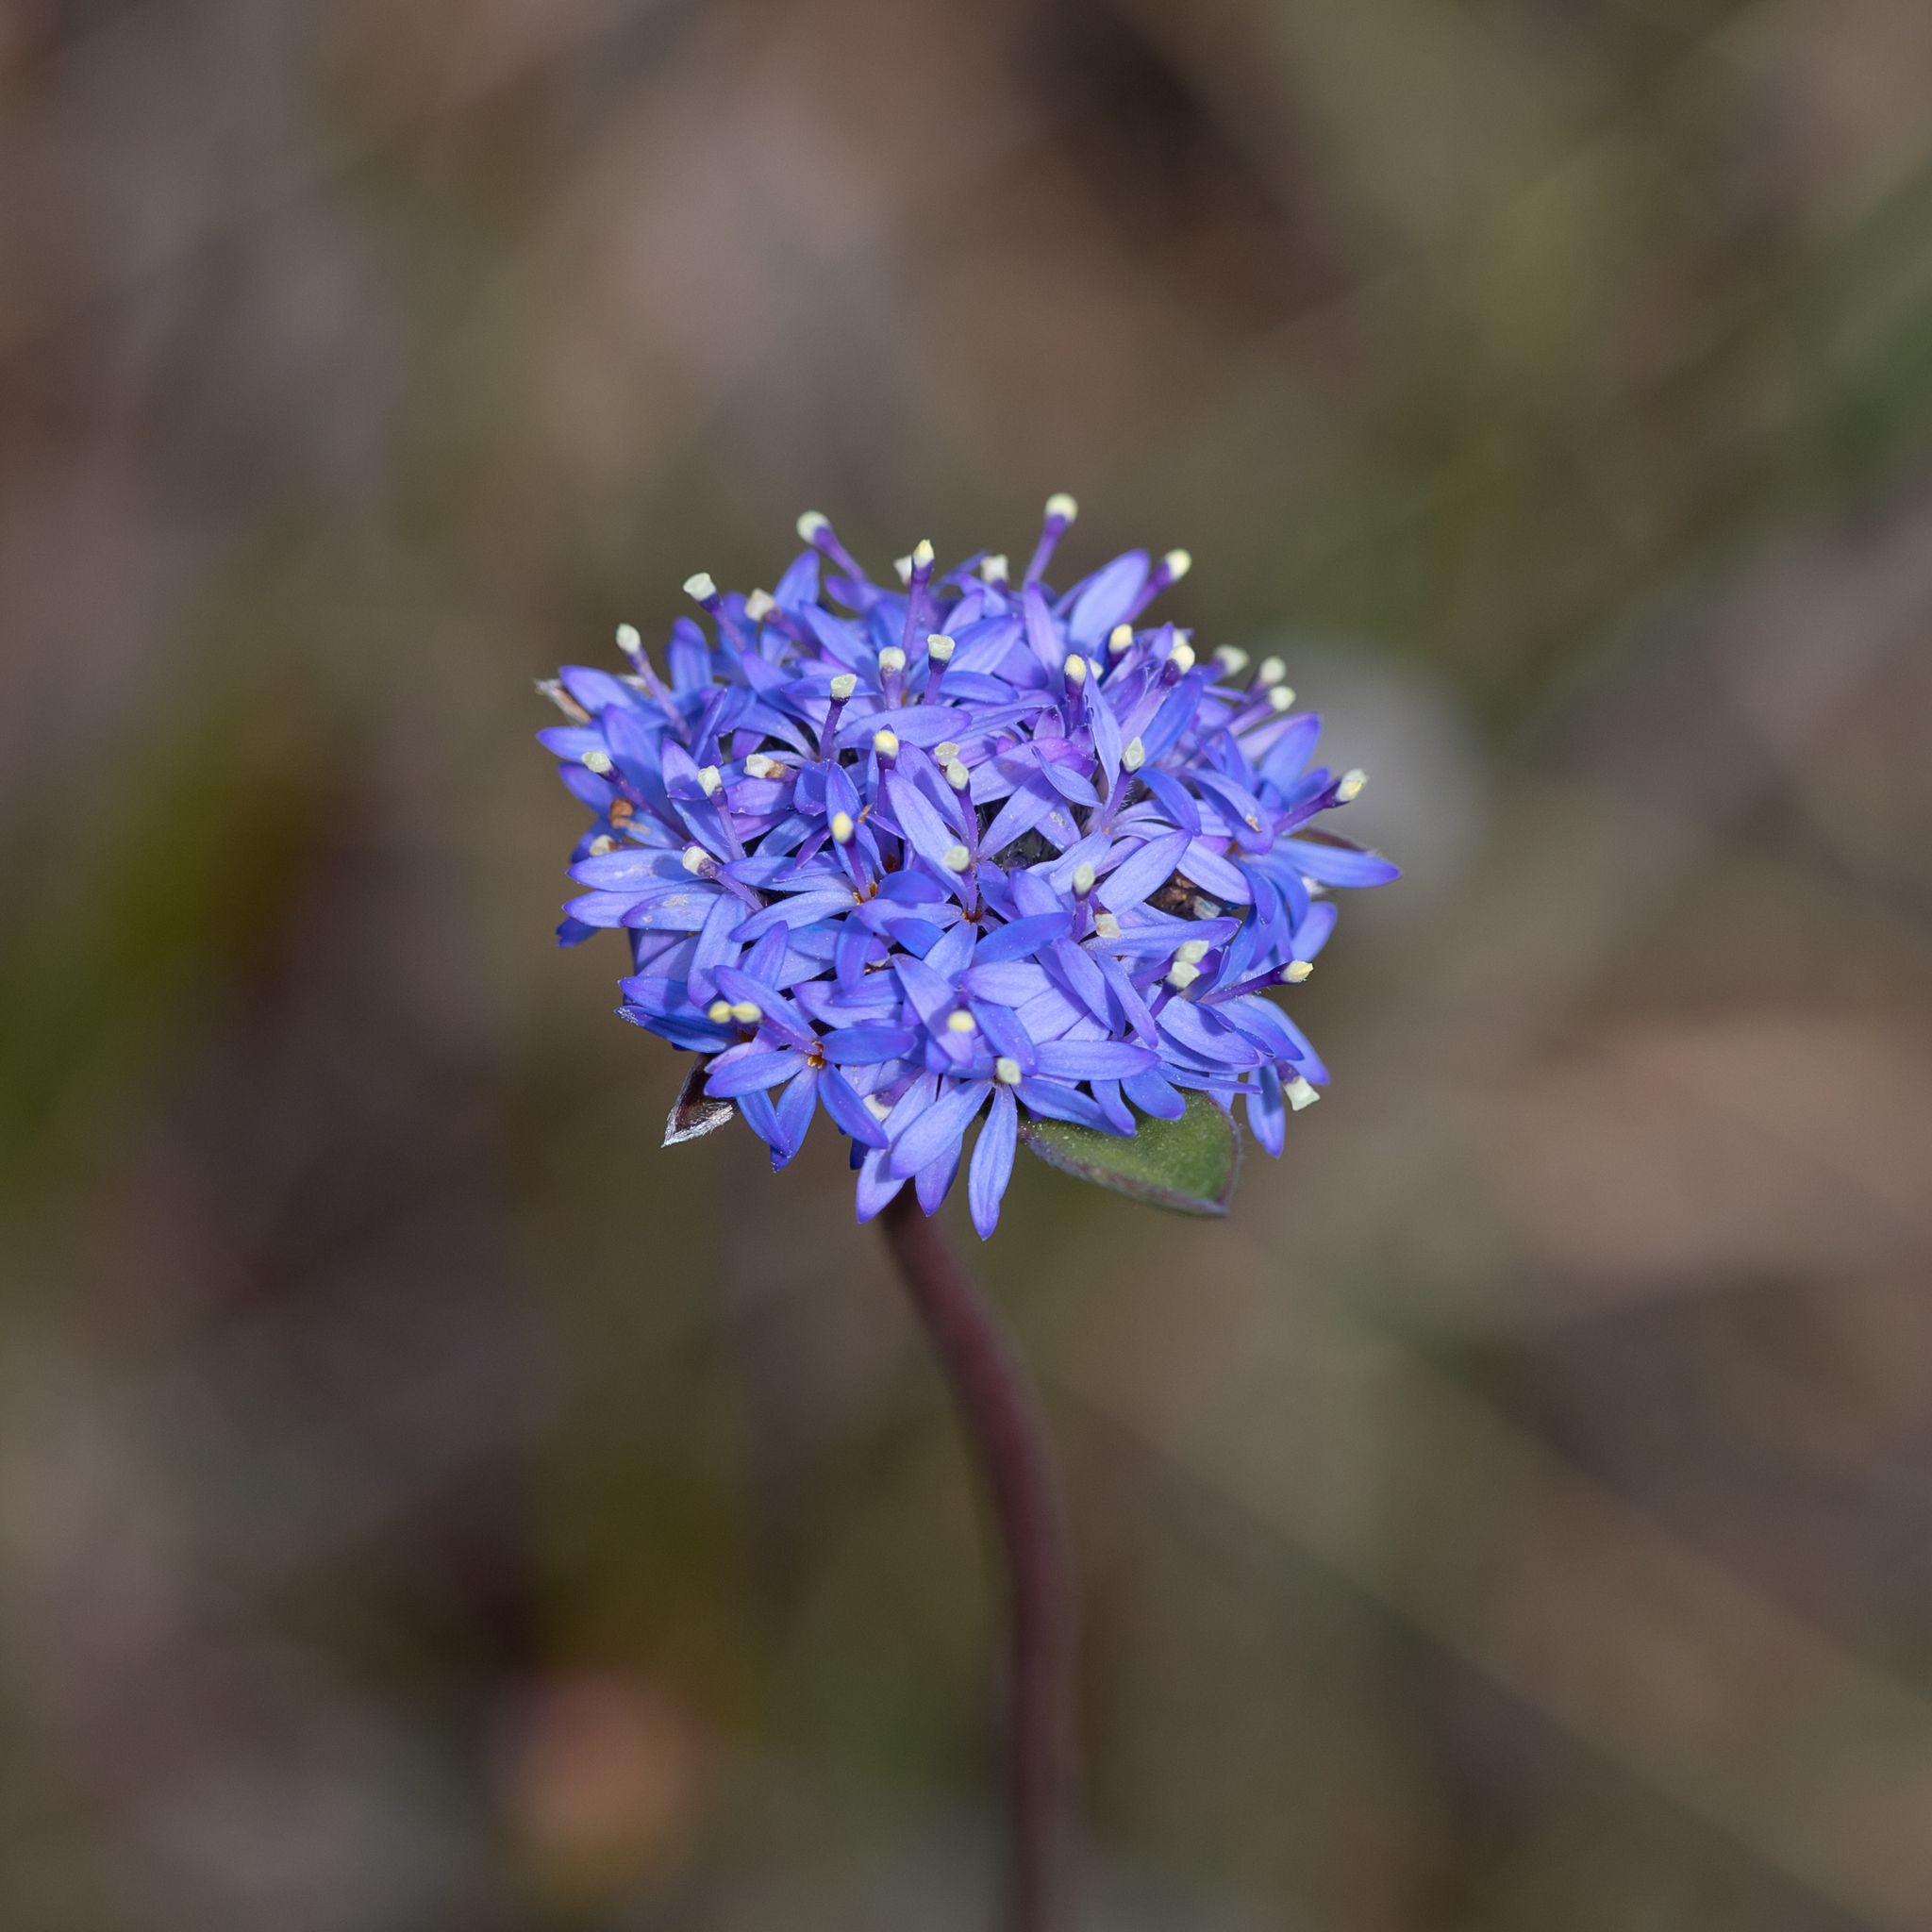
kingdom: Plantae
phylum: Tracheophyta
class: Magnoliopsida
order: Asterales
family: Goodeniaceae
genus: Brunonia
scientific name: Brunonia australis
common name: Blue pincushion
